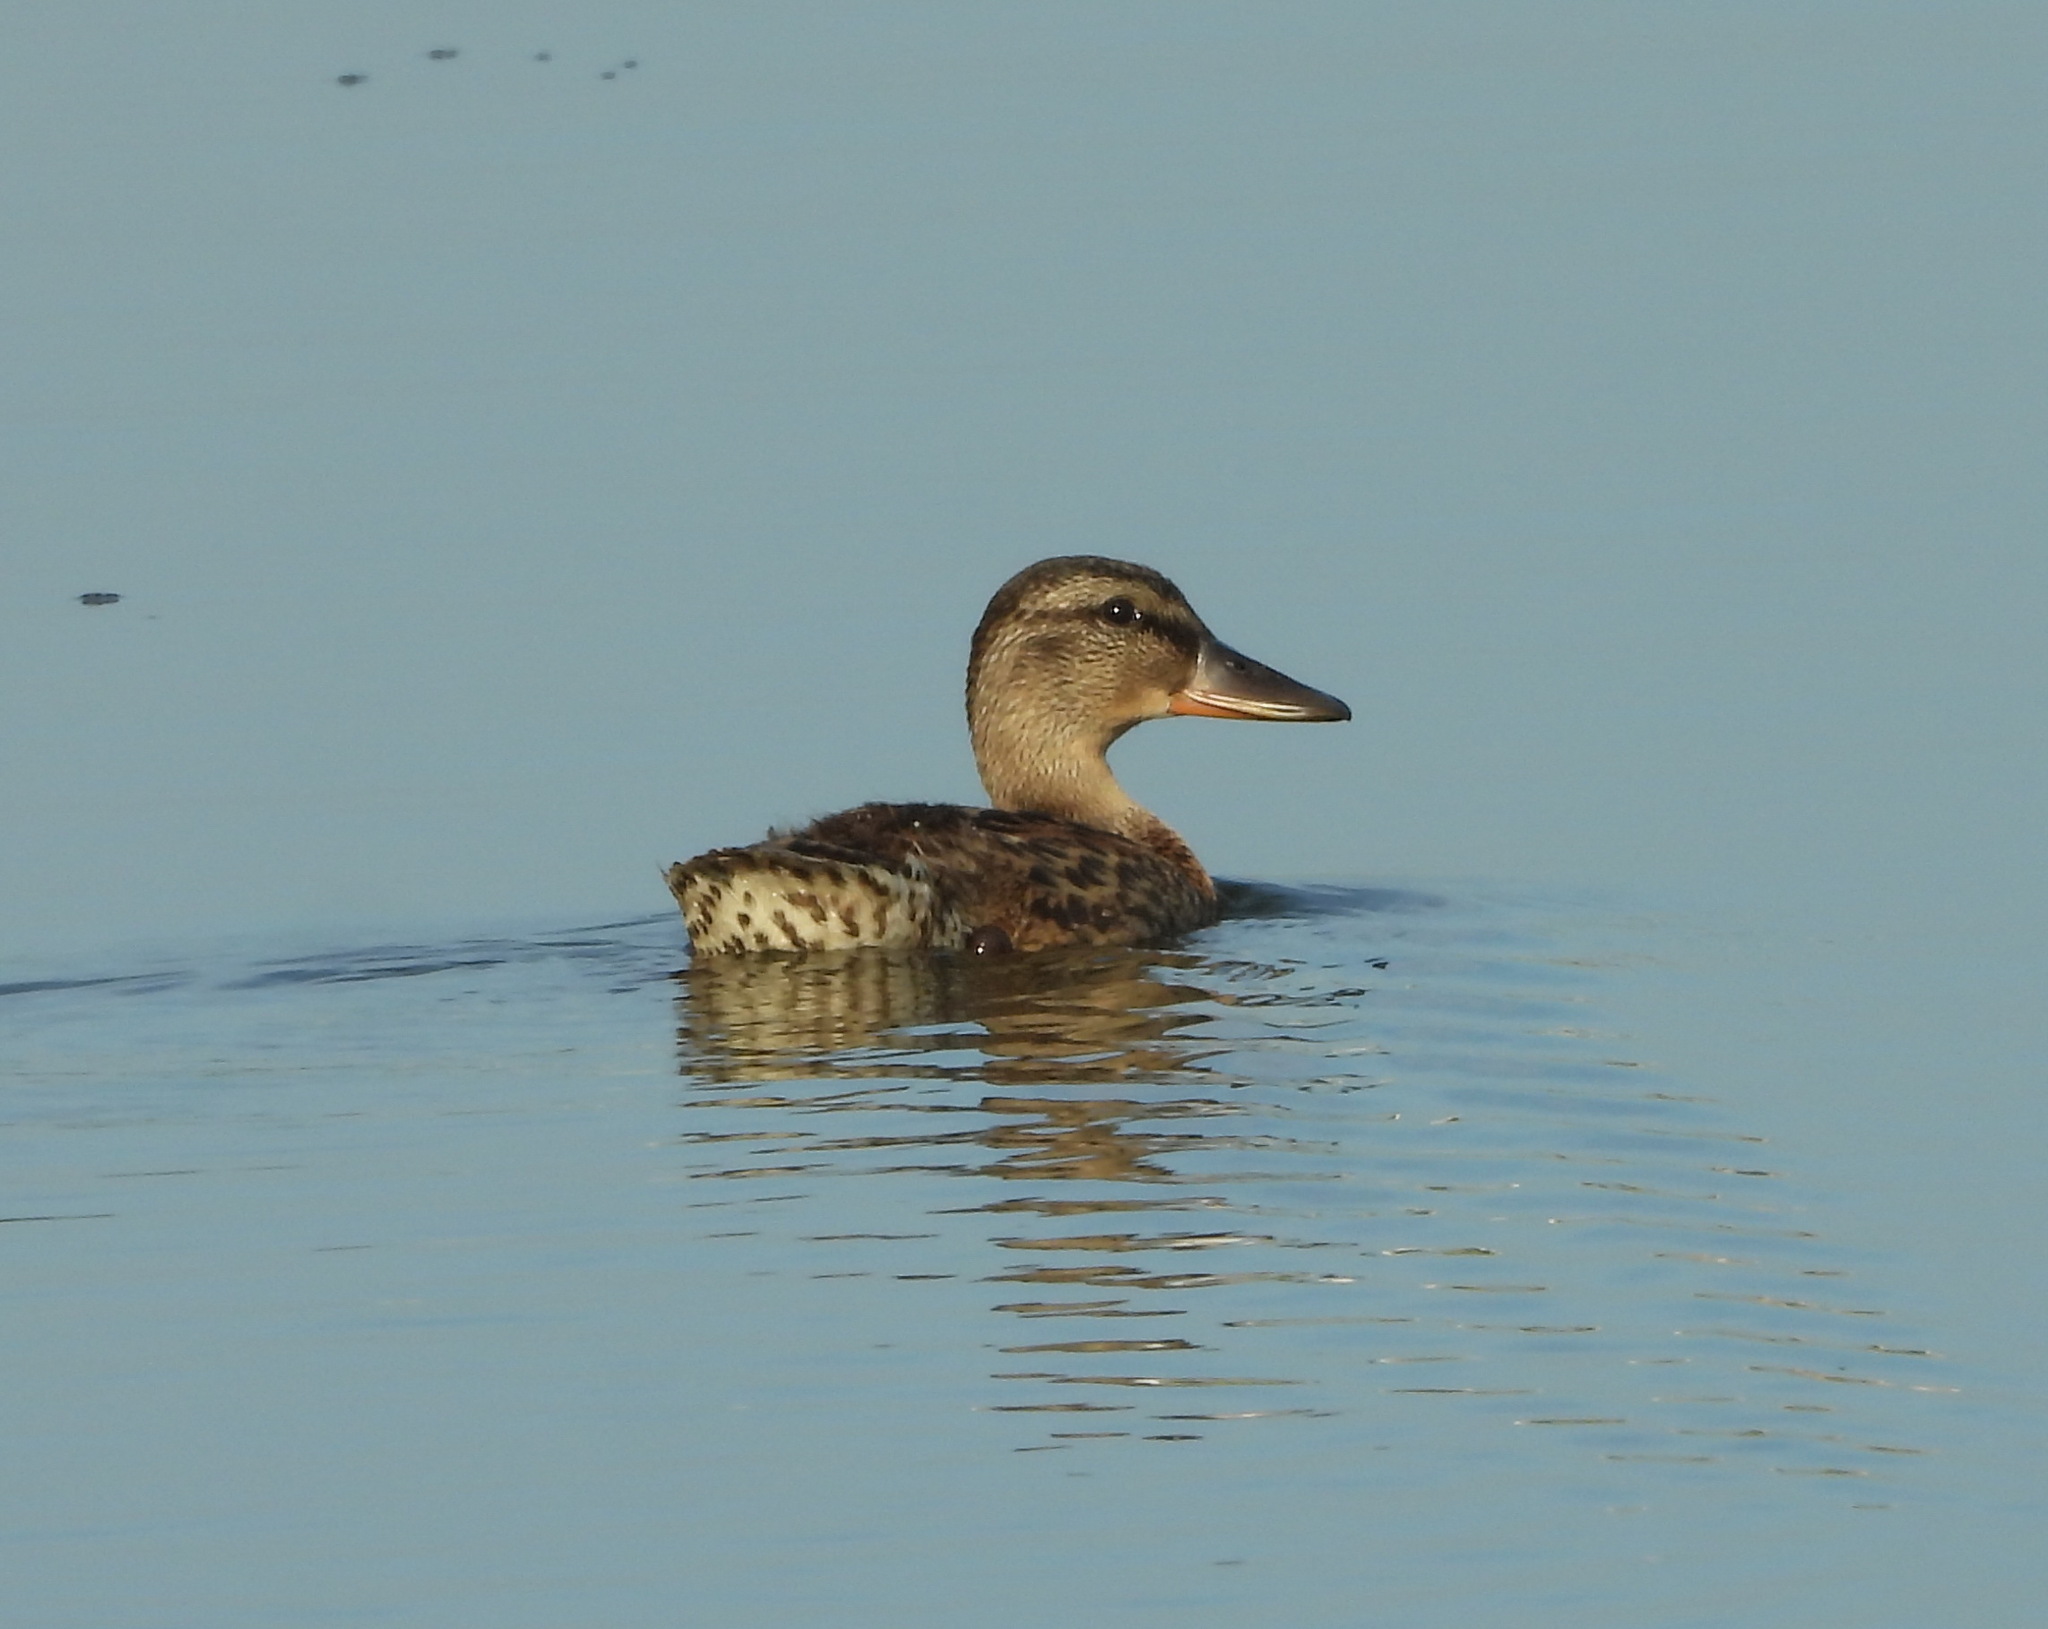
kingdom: Animalia
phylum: Chordata
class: Aves
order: Anseriformes
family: Anatidae
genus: Anas
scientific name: Anas platyrhynchos
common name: Mallard
